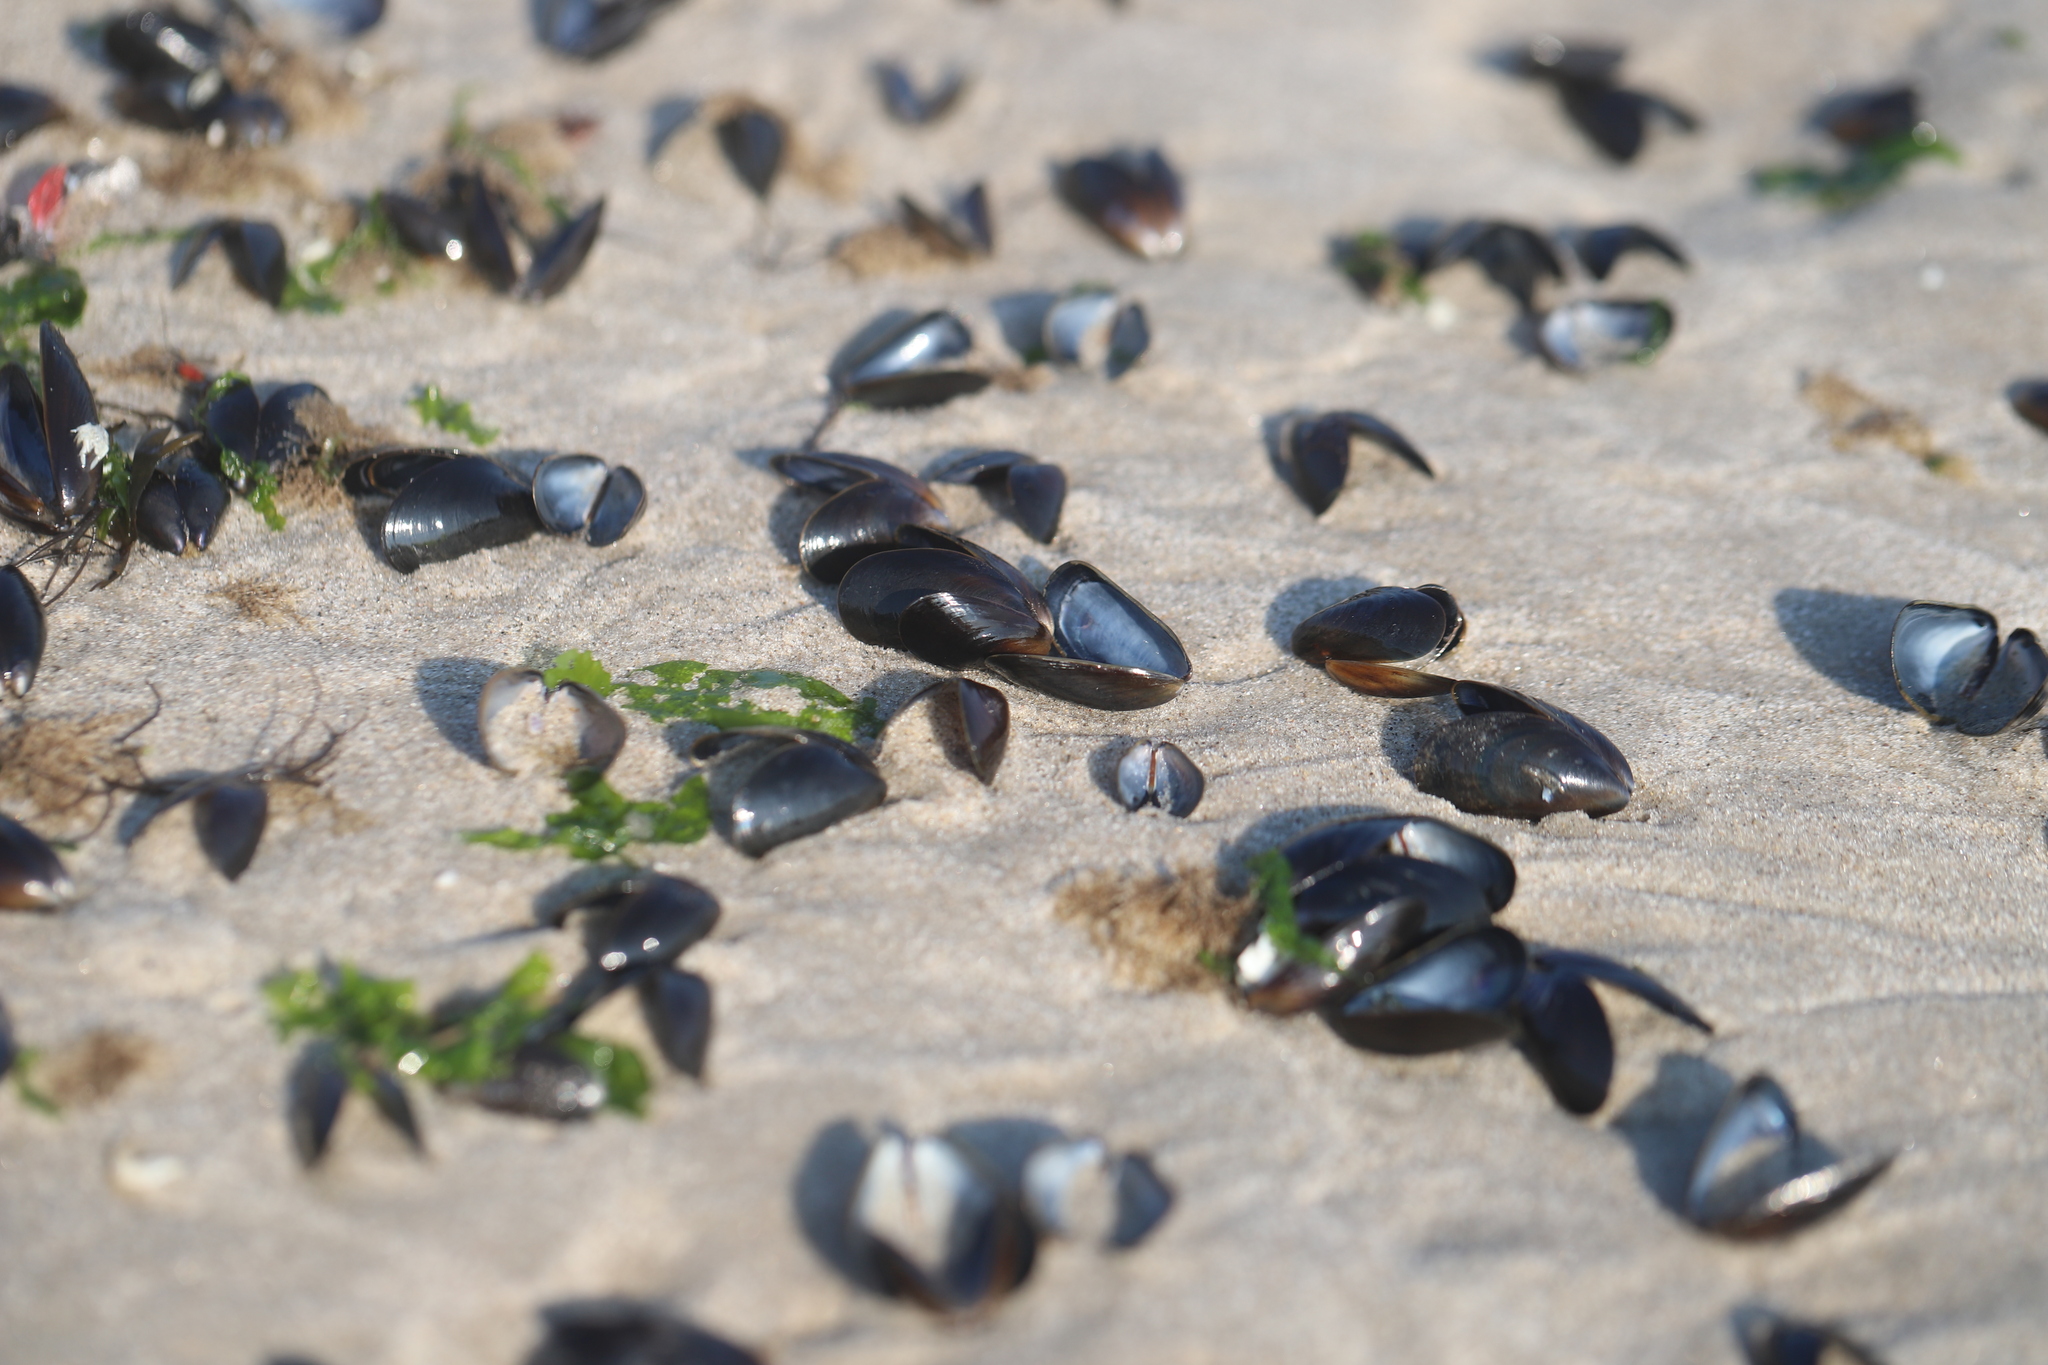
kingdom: Animalia
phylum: Mollusca
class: Bivalvia
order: Mytilida
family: Mytilidae
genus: Mytilus
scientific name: Mytilus edulis
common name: Blue mussel
